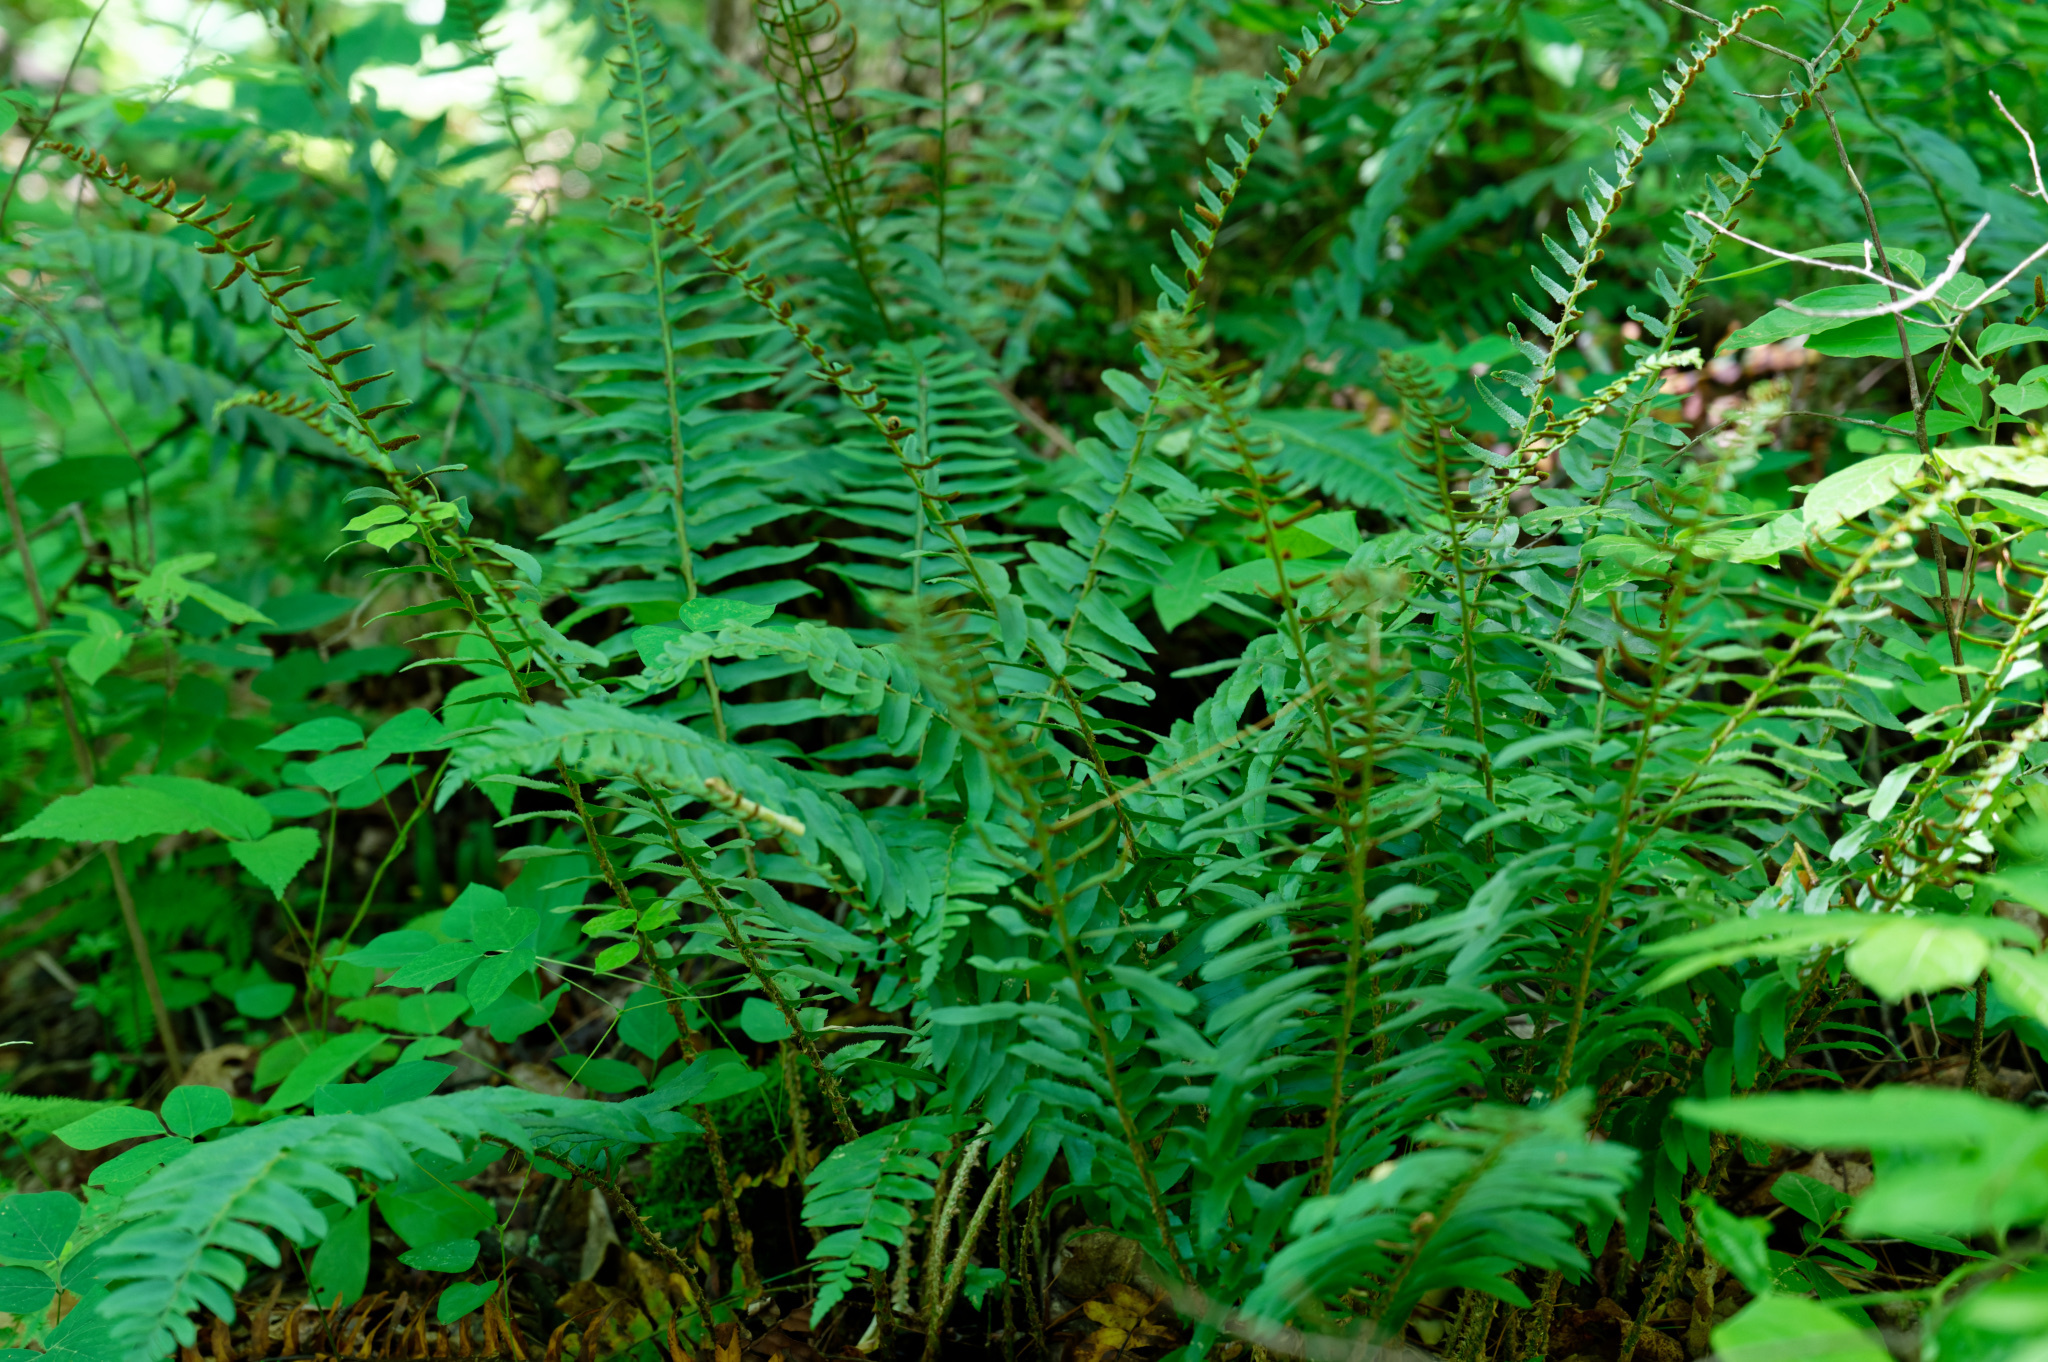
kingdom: Plantae
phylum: Tracheophyta
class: Polypodiopsida
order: Polypodiales
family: Dryopteridaceae
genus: Polystichum
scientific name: Polystichum acrostichoides
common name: Christmas fern
